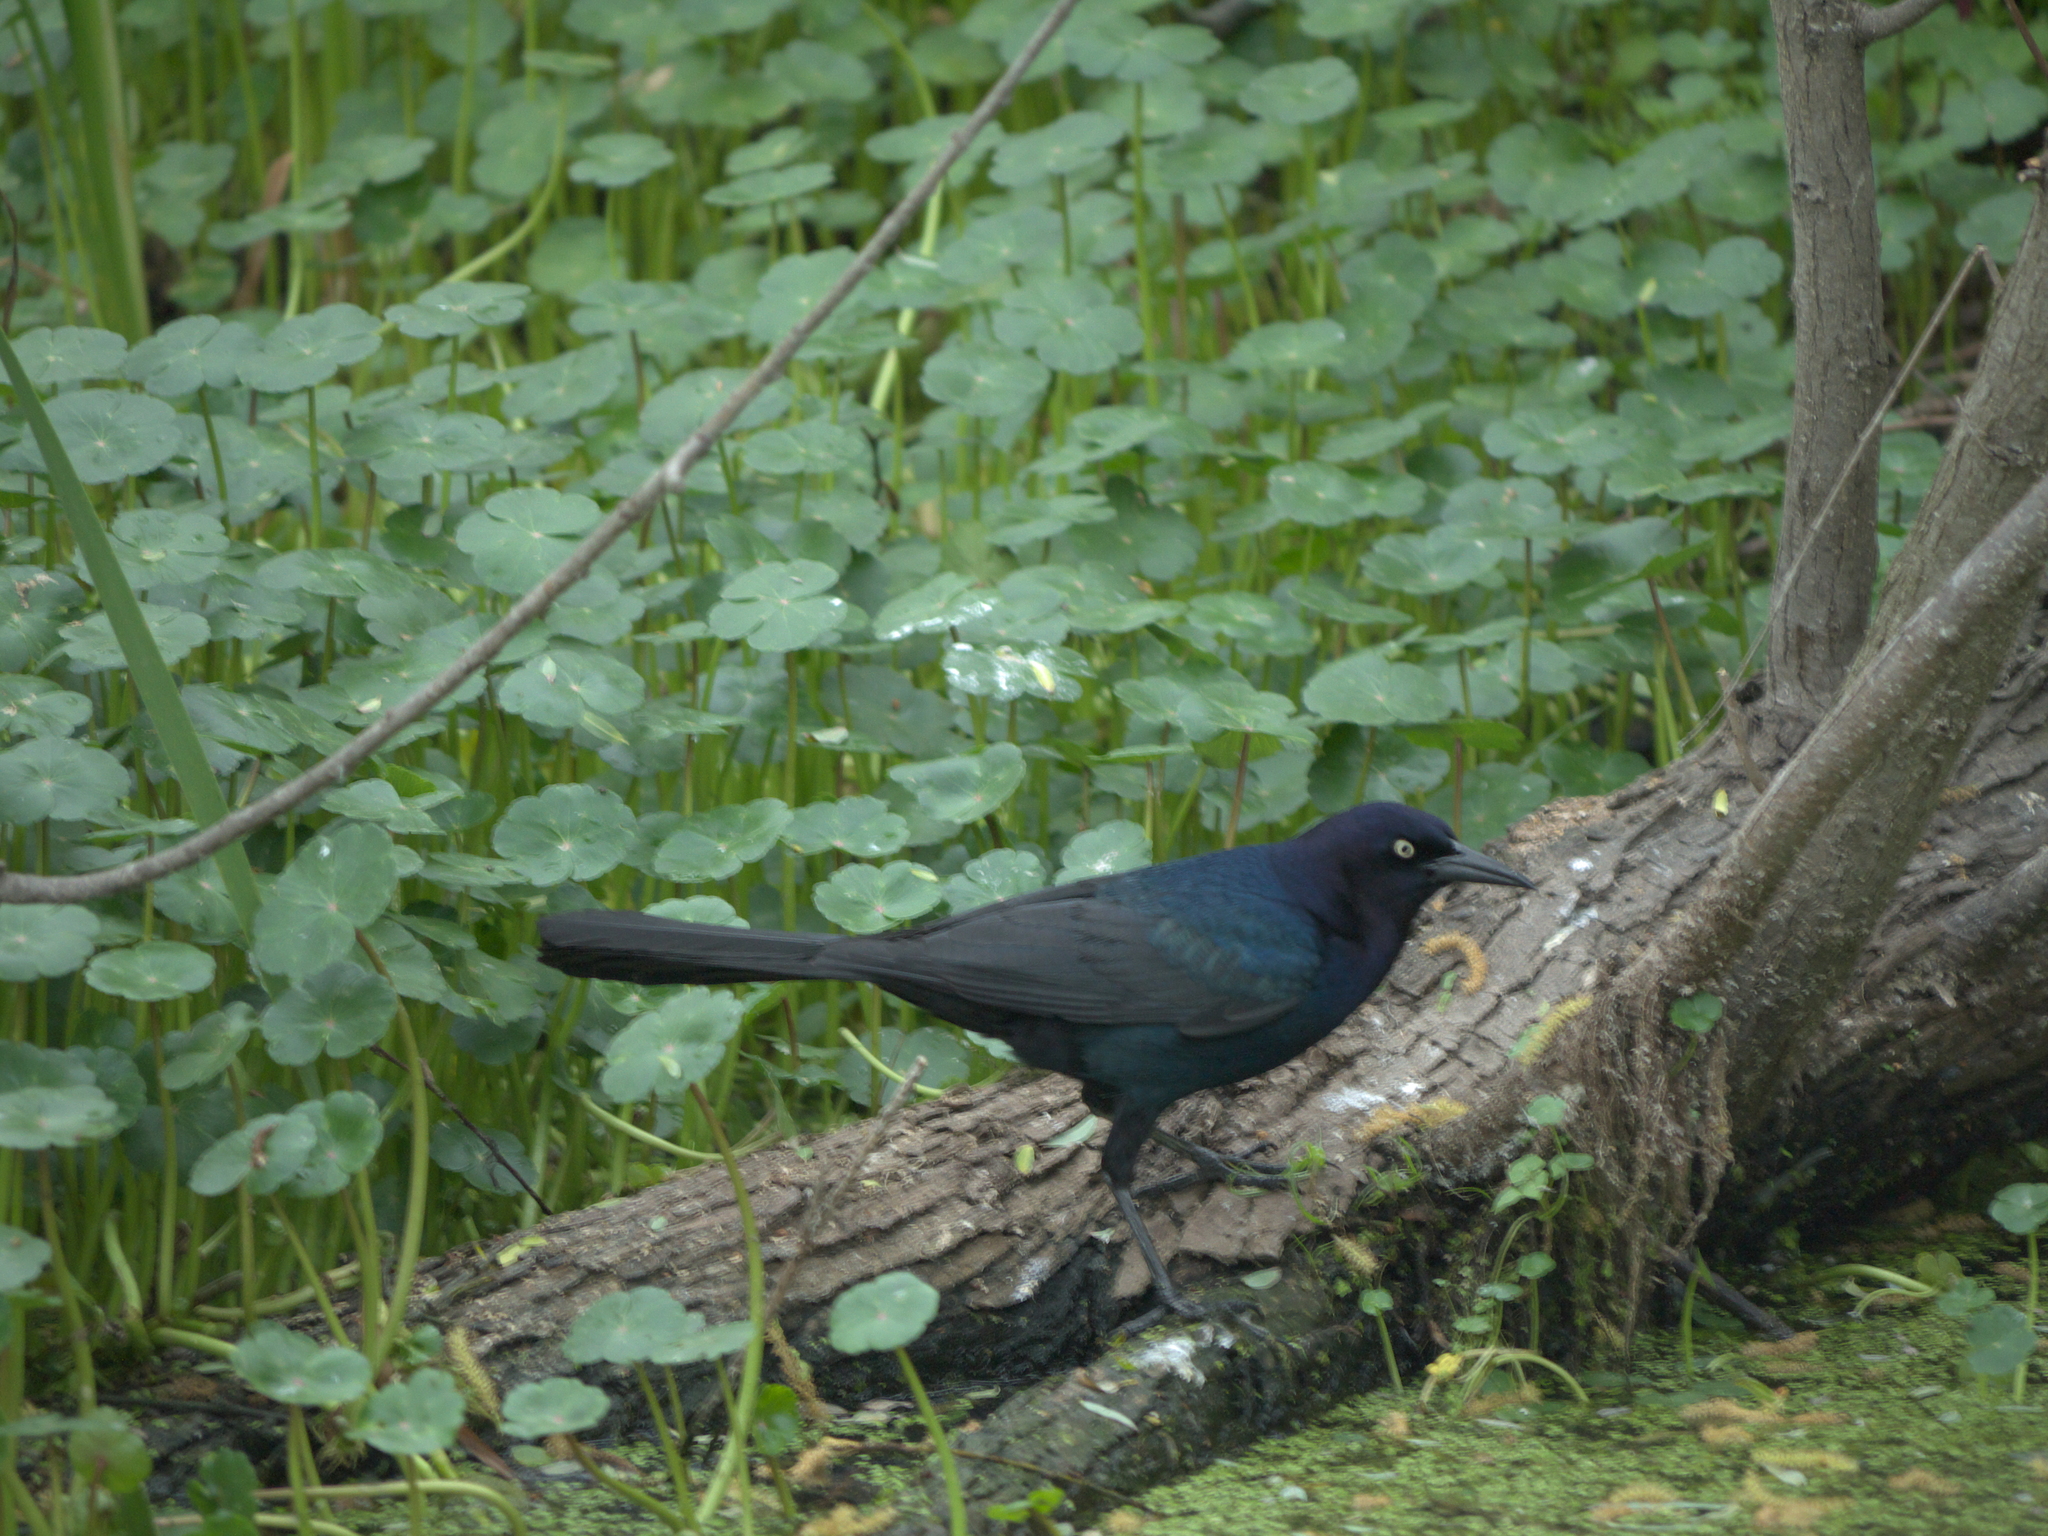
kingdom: Animalia
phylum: Chordata
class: Aves
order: Passeriformes
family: Icteridae
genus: Quiscalus
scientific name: Quiscalus major
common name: Boat-tailed grackle
